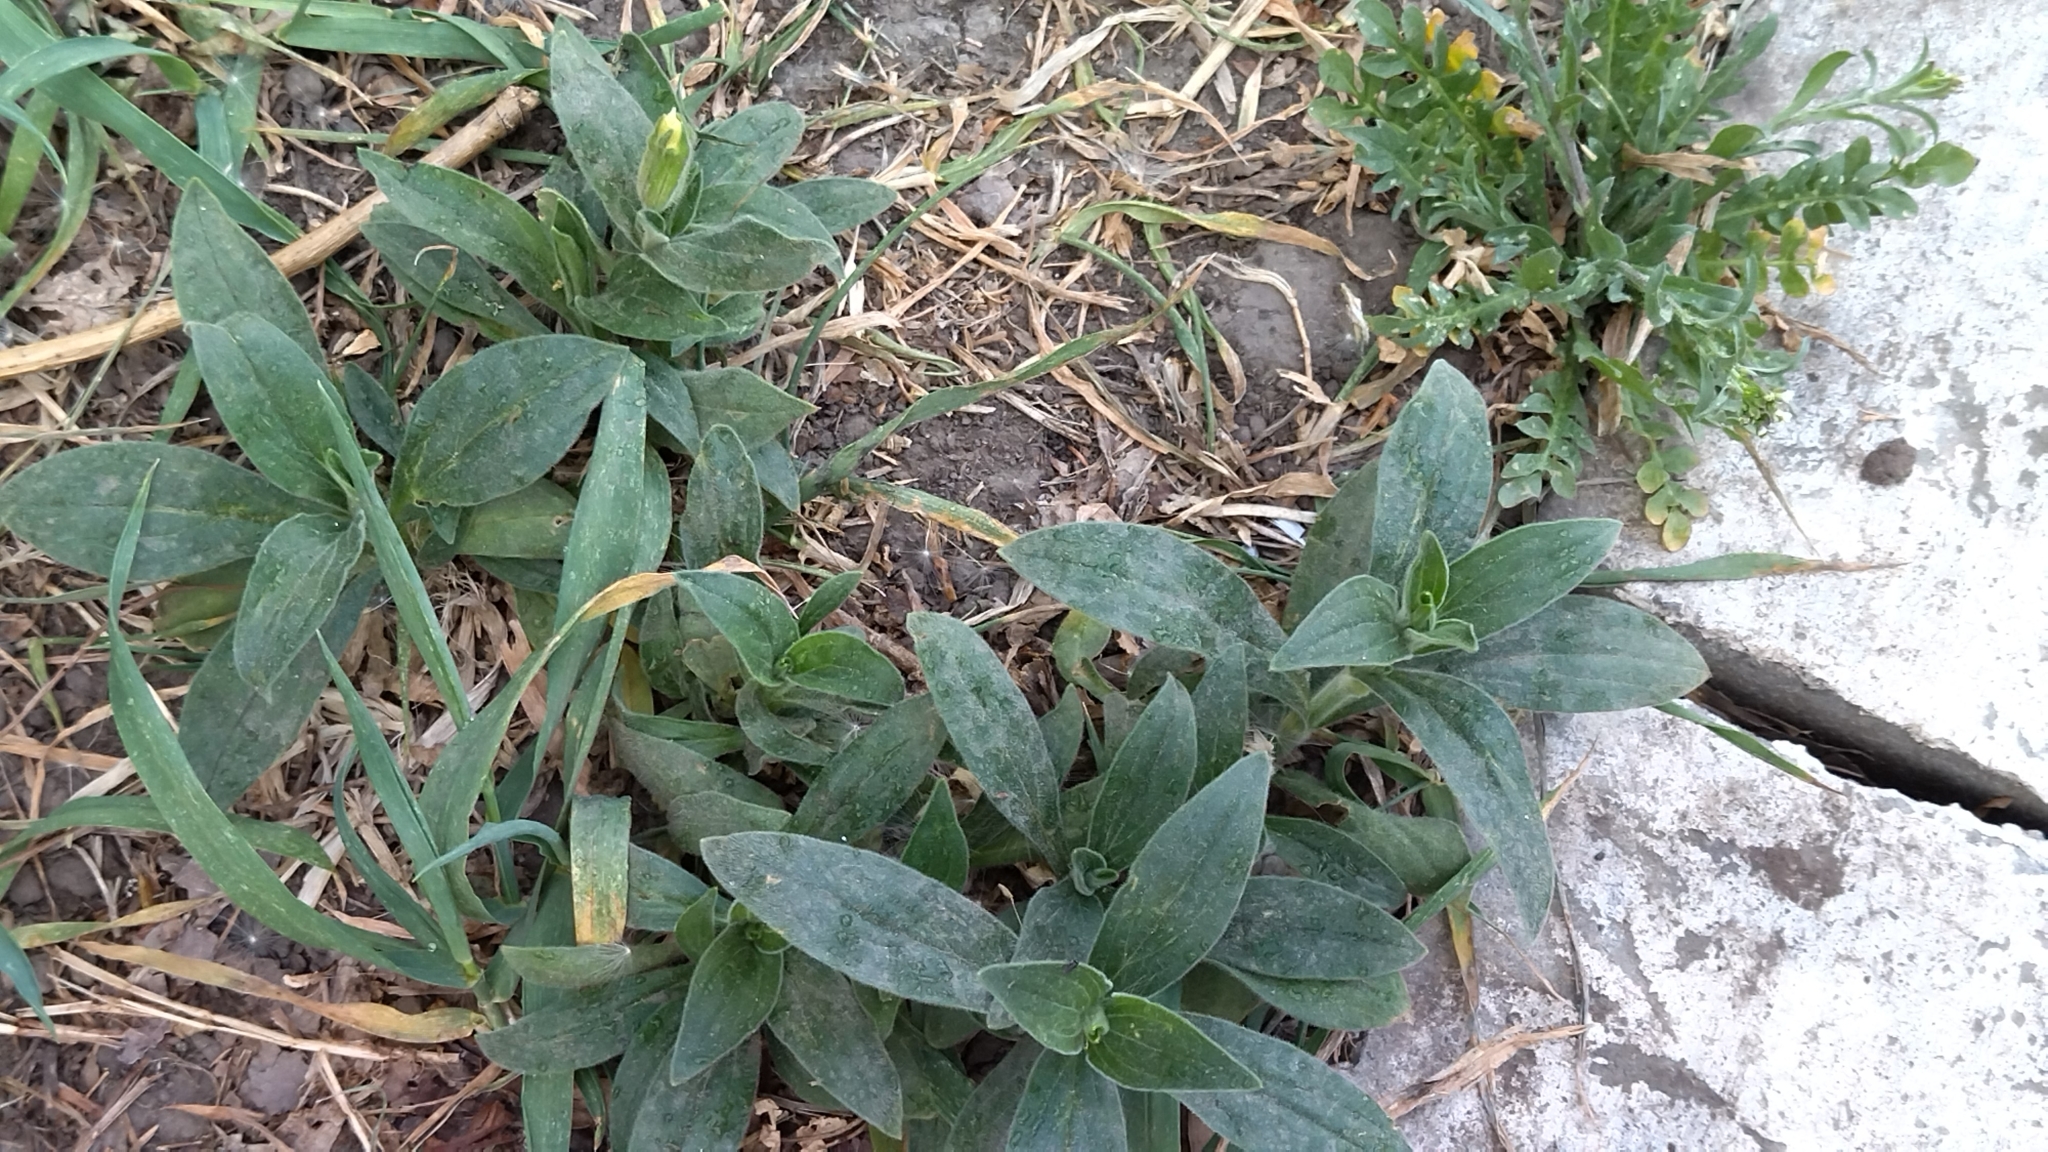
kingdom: Plantae
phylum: Tracheophyta
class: Magnoliopsida
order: Caryophyllales
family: Caryophyllaceae
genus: Silene
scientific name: Silene latifolia
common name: White campion
